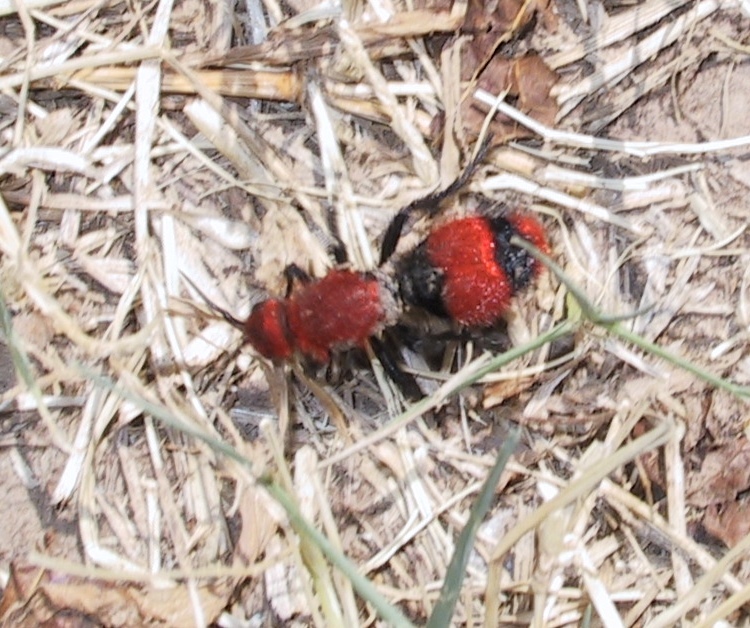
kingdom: Animalia
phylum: Arthropoda
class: Insecta
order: Hymenoptera
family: Mutillidae
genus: Dasymutilla
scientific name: Dasymutilla occidentalis
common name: Common eastern velvet ant
